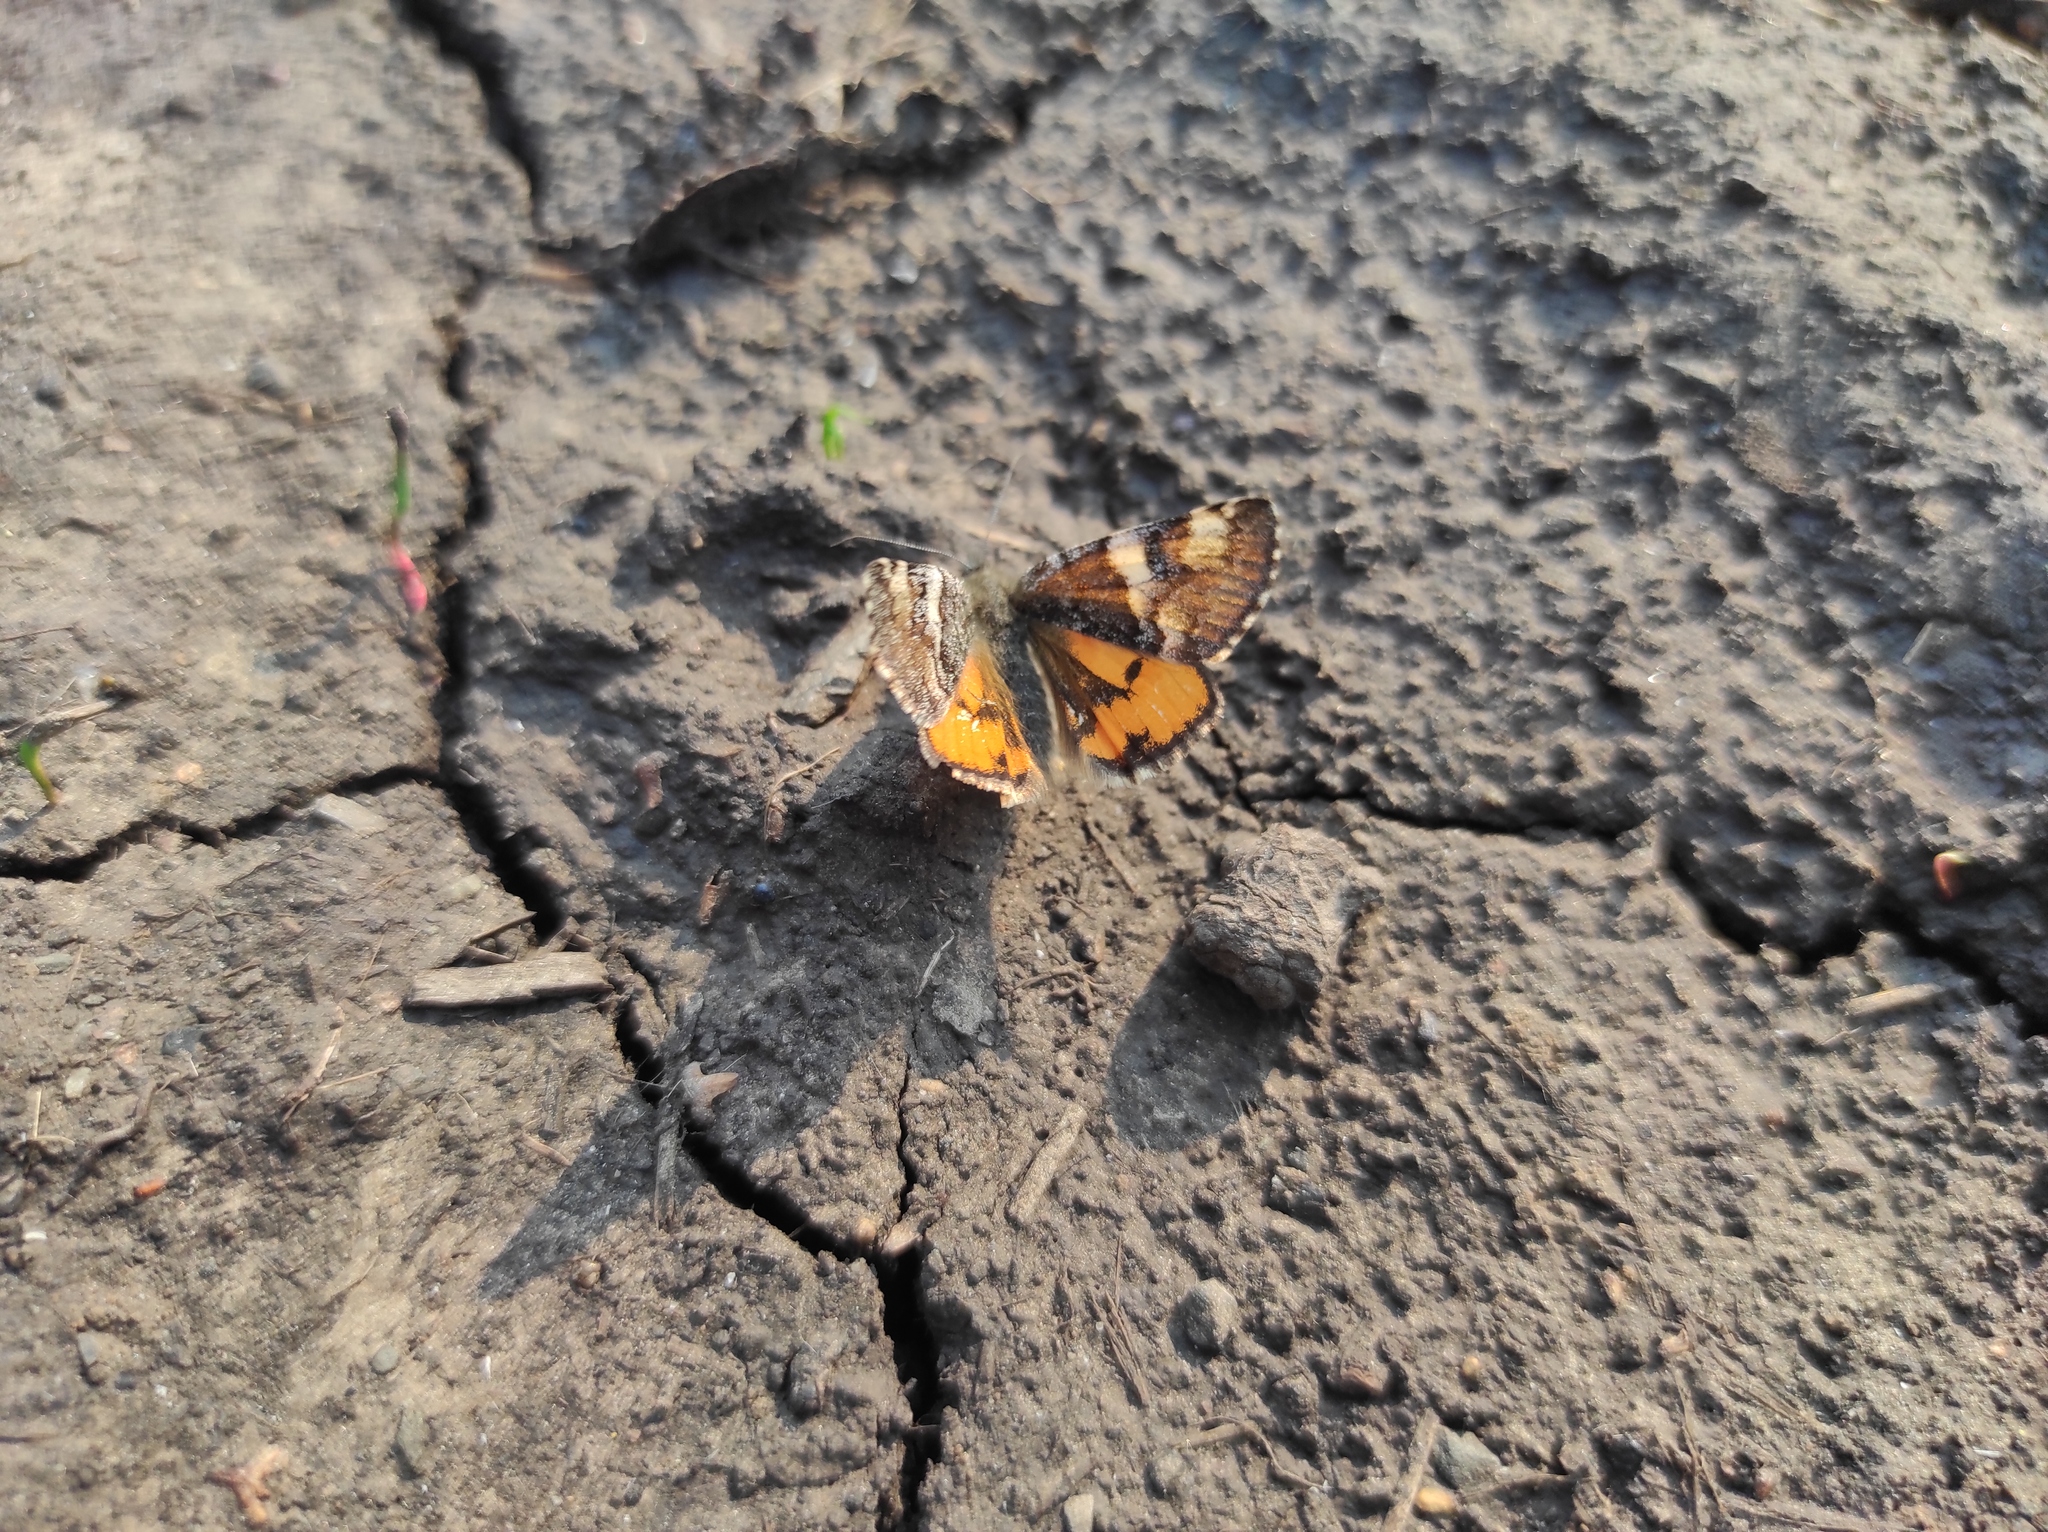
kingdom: Animalia
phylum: Arthropoda
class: Insecta
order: Lepidoptera
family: Geometridae
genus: Archiearis
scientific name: Archiearis parthenias
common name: Orange underwing
